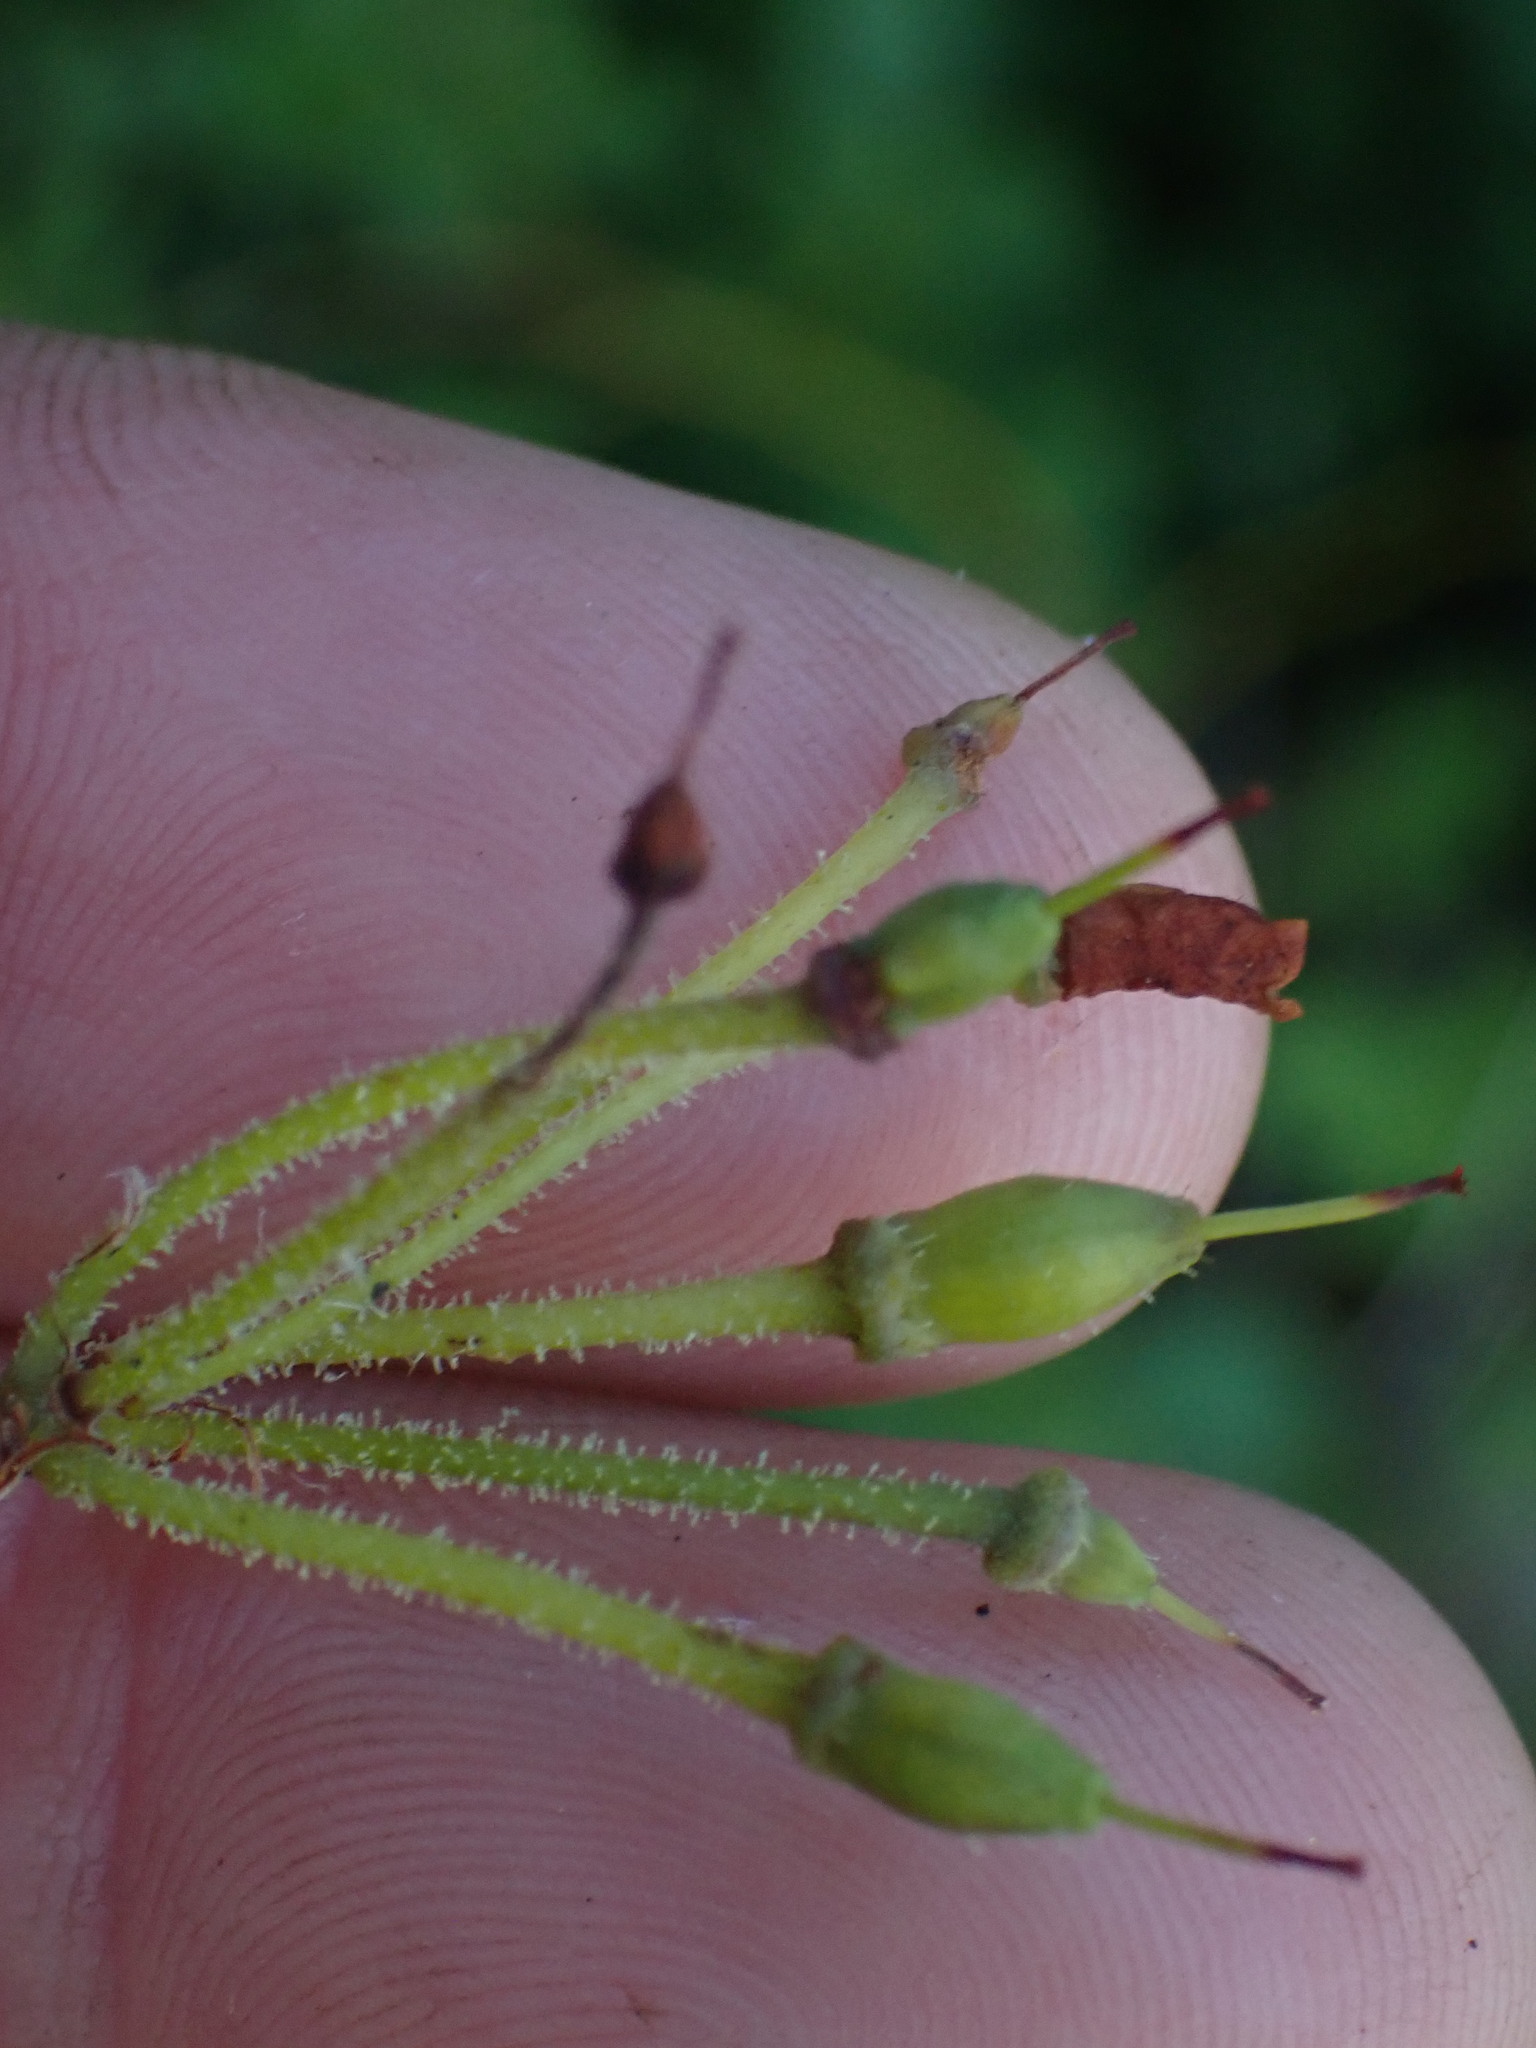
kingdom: Plantae
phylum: Tracheophyta
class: Magnoliopsida
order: Ericales
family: Ericaceae
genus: Rhododendron
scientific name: Rhododendron menziesii
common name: Pacific menziesia
